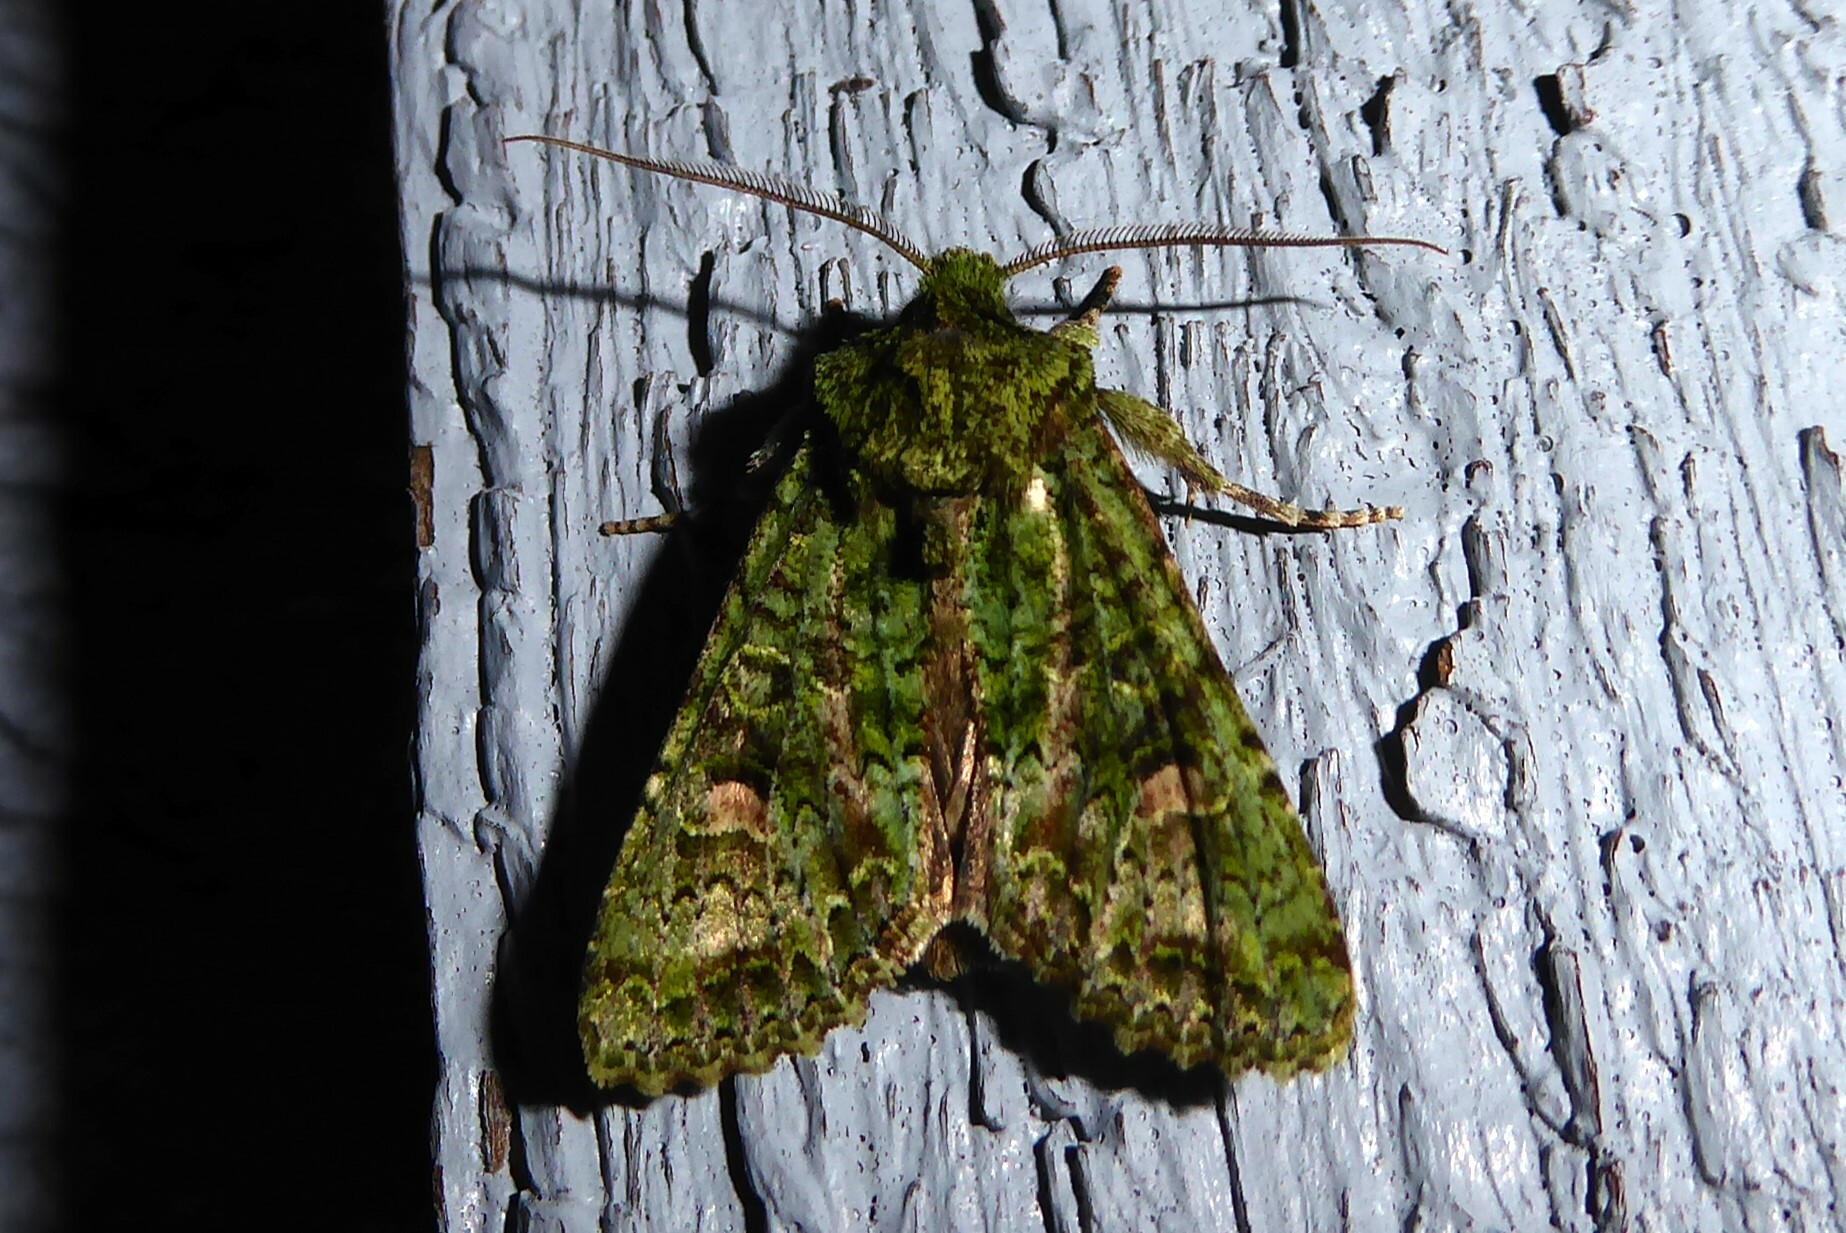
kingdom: Animalia
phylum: Arthropoda
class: Insecta
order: Lepidoptera
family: Noctuidae
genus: Ichneutica
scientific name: Ichneutica
